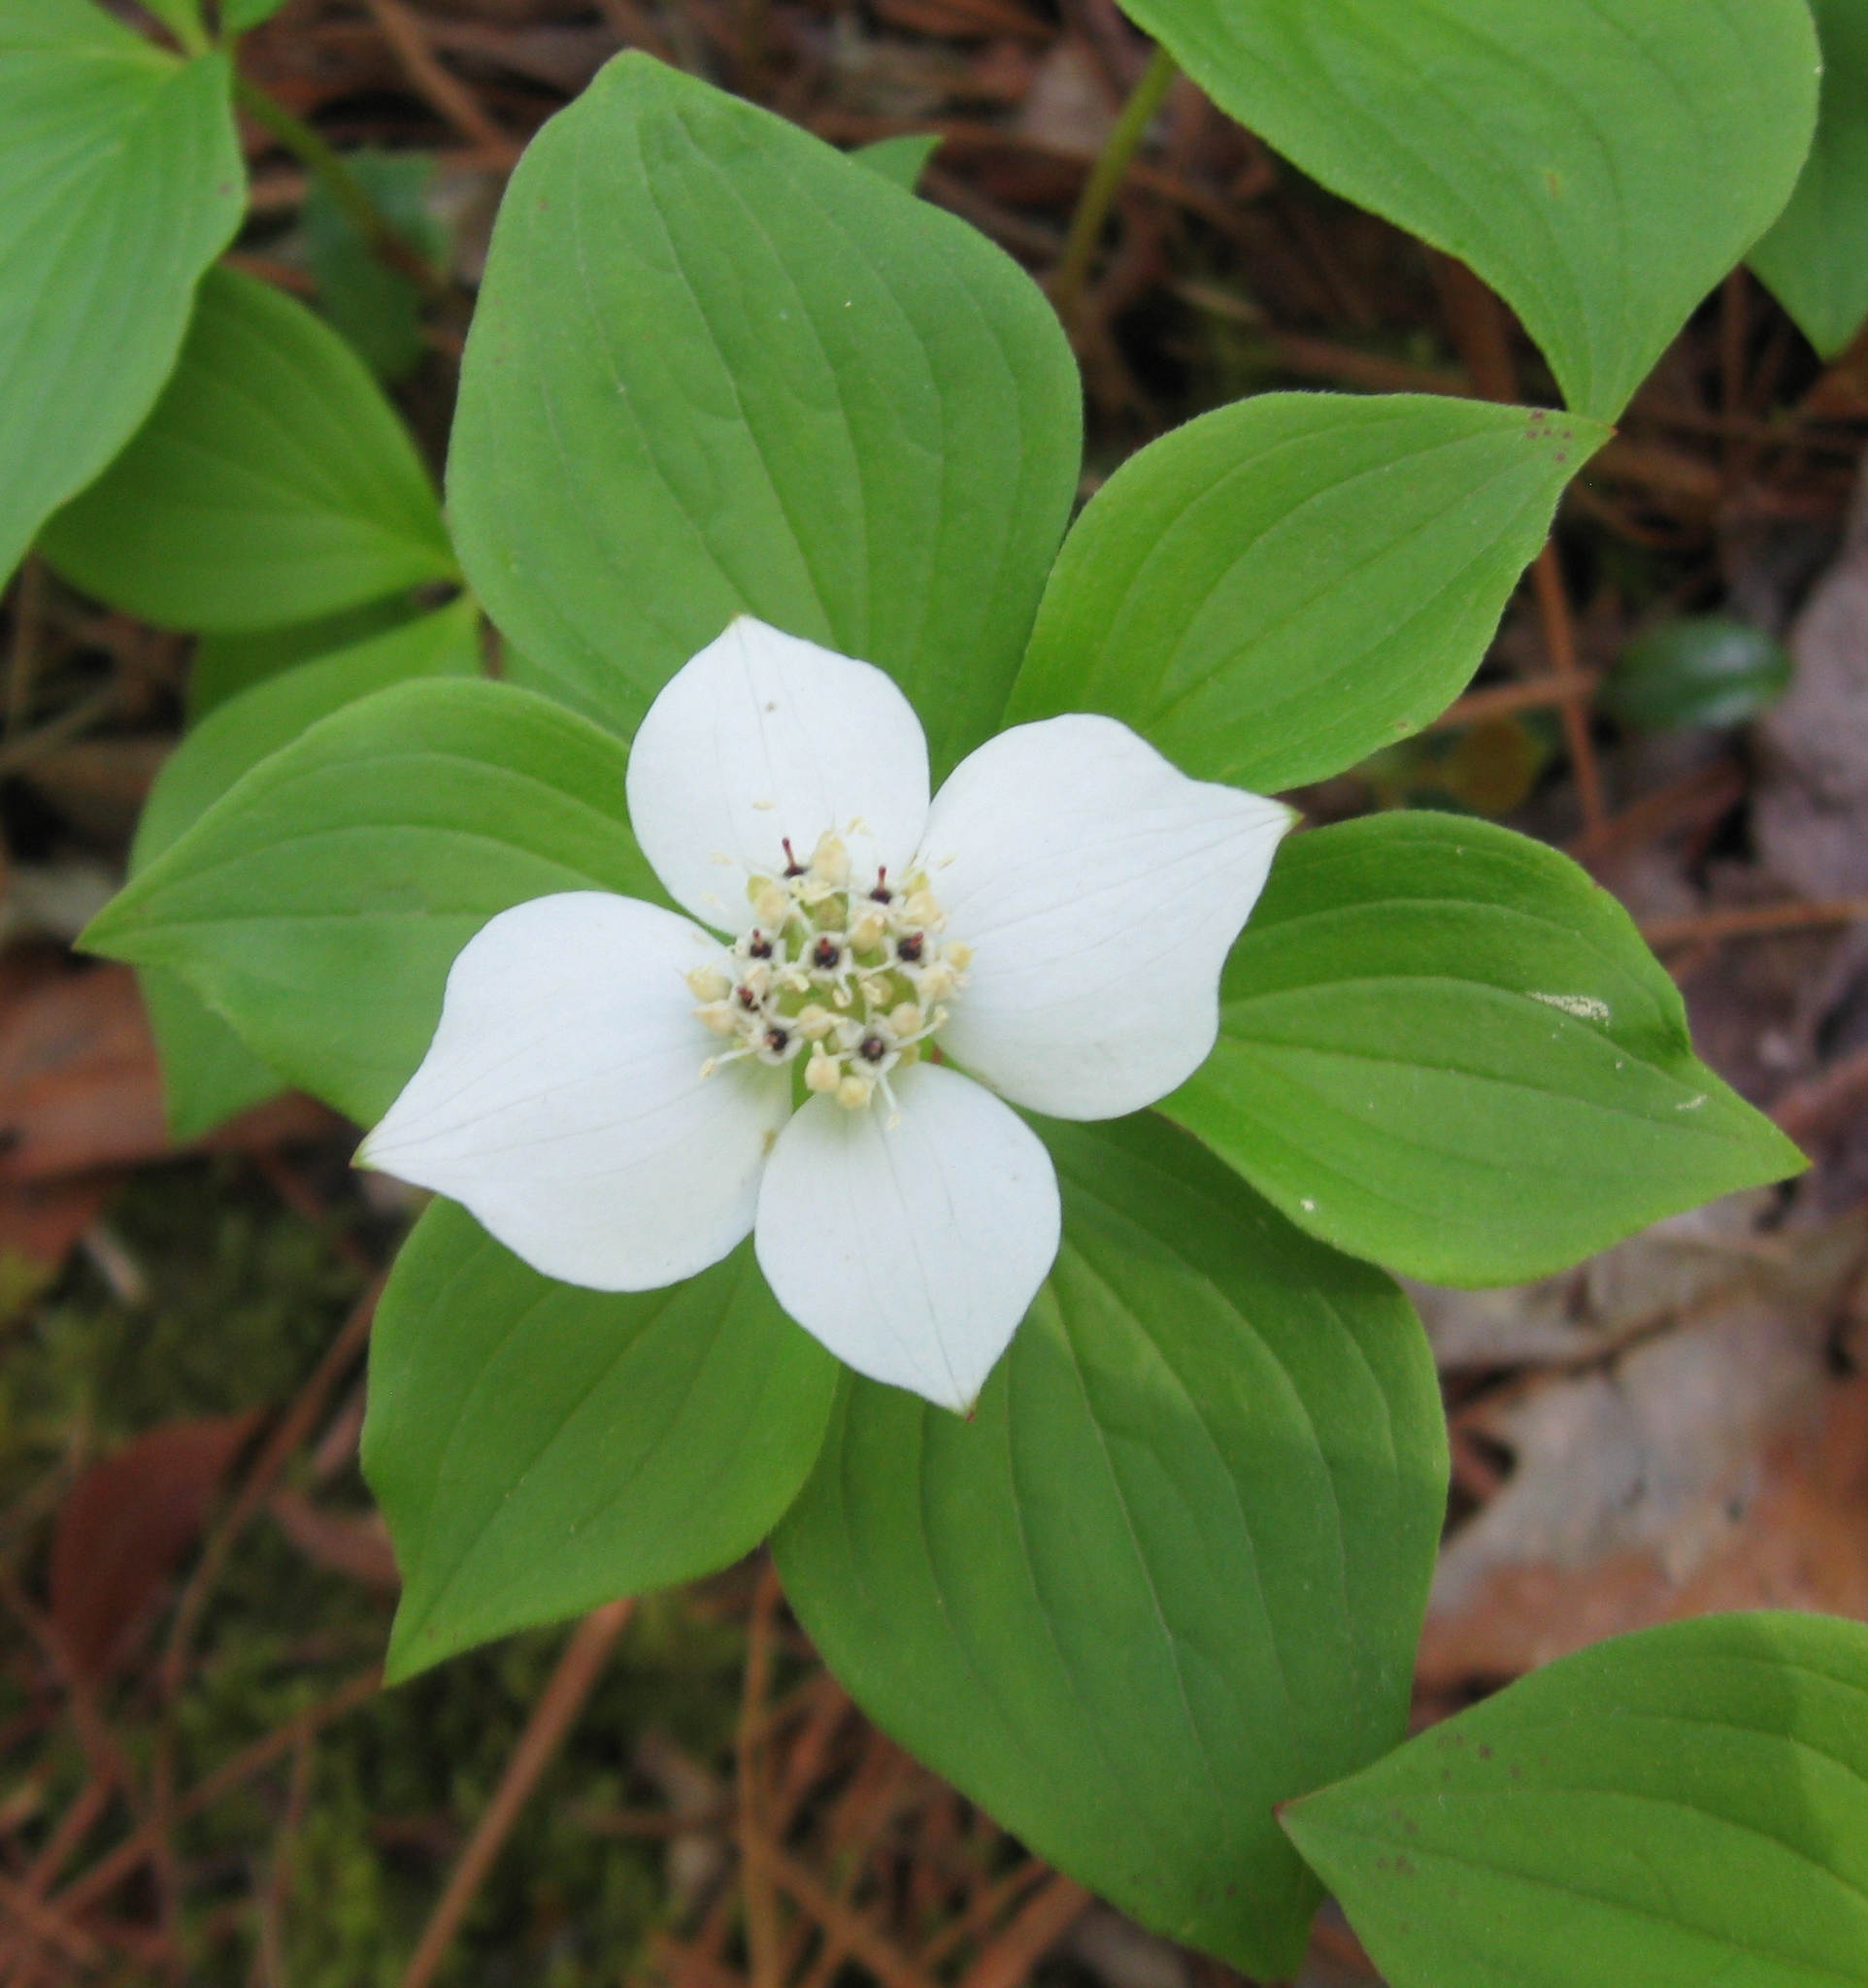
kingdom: Plantae
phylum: Tracheophyta
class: Magnoliopsida
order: Cornales
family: Cornaceae
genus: Cornus
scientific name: Cornus canadensis
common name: Creeping dogwood
